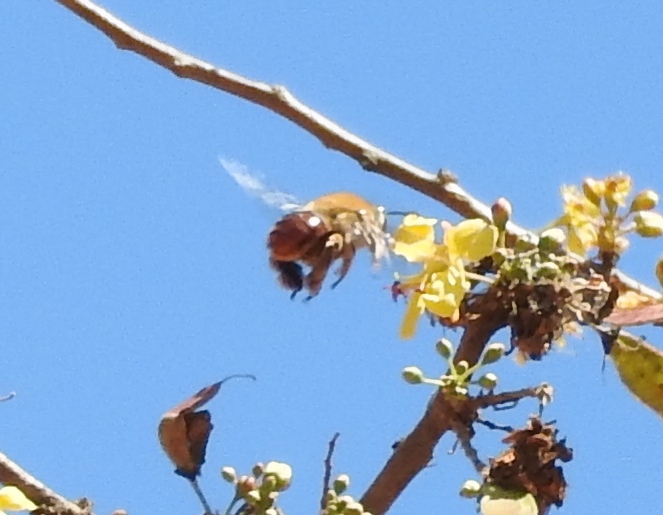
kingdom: Animalia
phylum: Arthropoda
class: Insecta
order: Hymenoptera
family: Apidae
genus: Centris
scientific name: Centris
